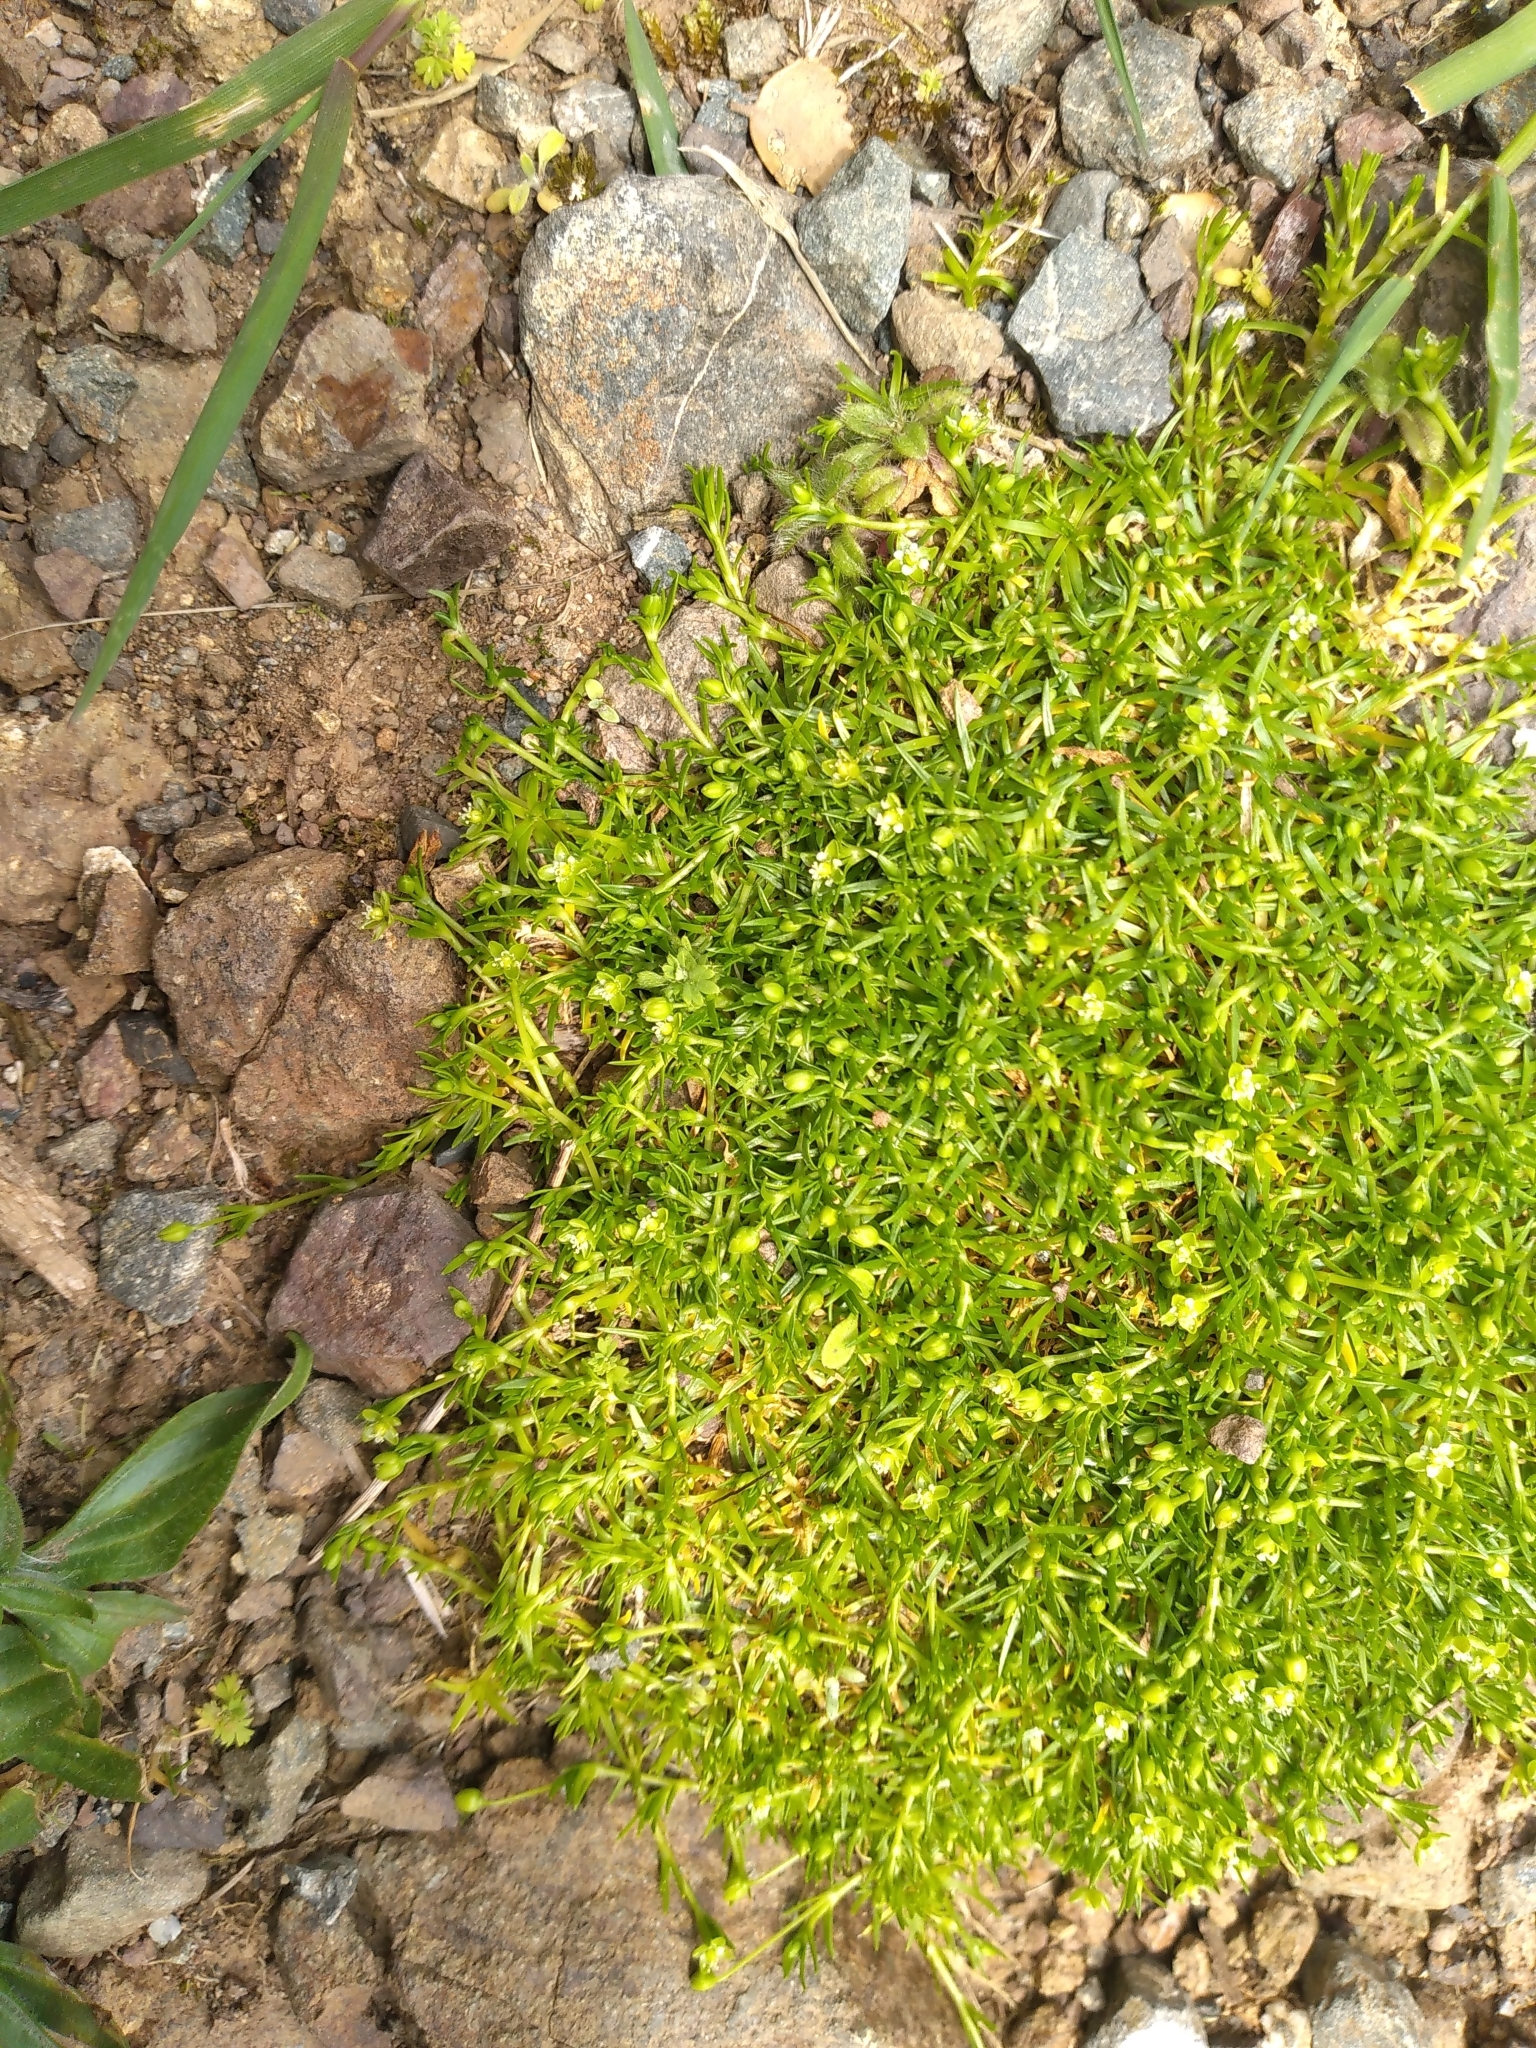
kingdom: Plantae
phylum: Tracheophyta
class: Magnoliopsida
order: Caryophyllales
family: Caryophyllaceae
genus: Sagina
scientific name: Sagina procumbens
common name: Procumbent pearlwort
